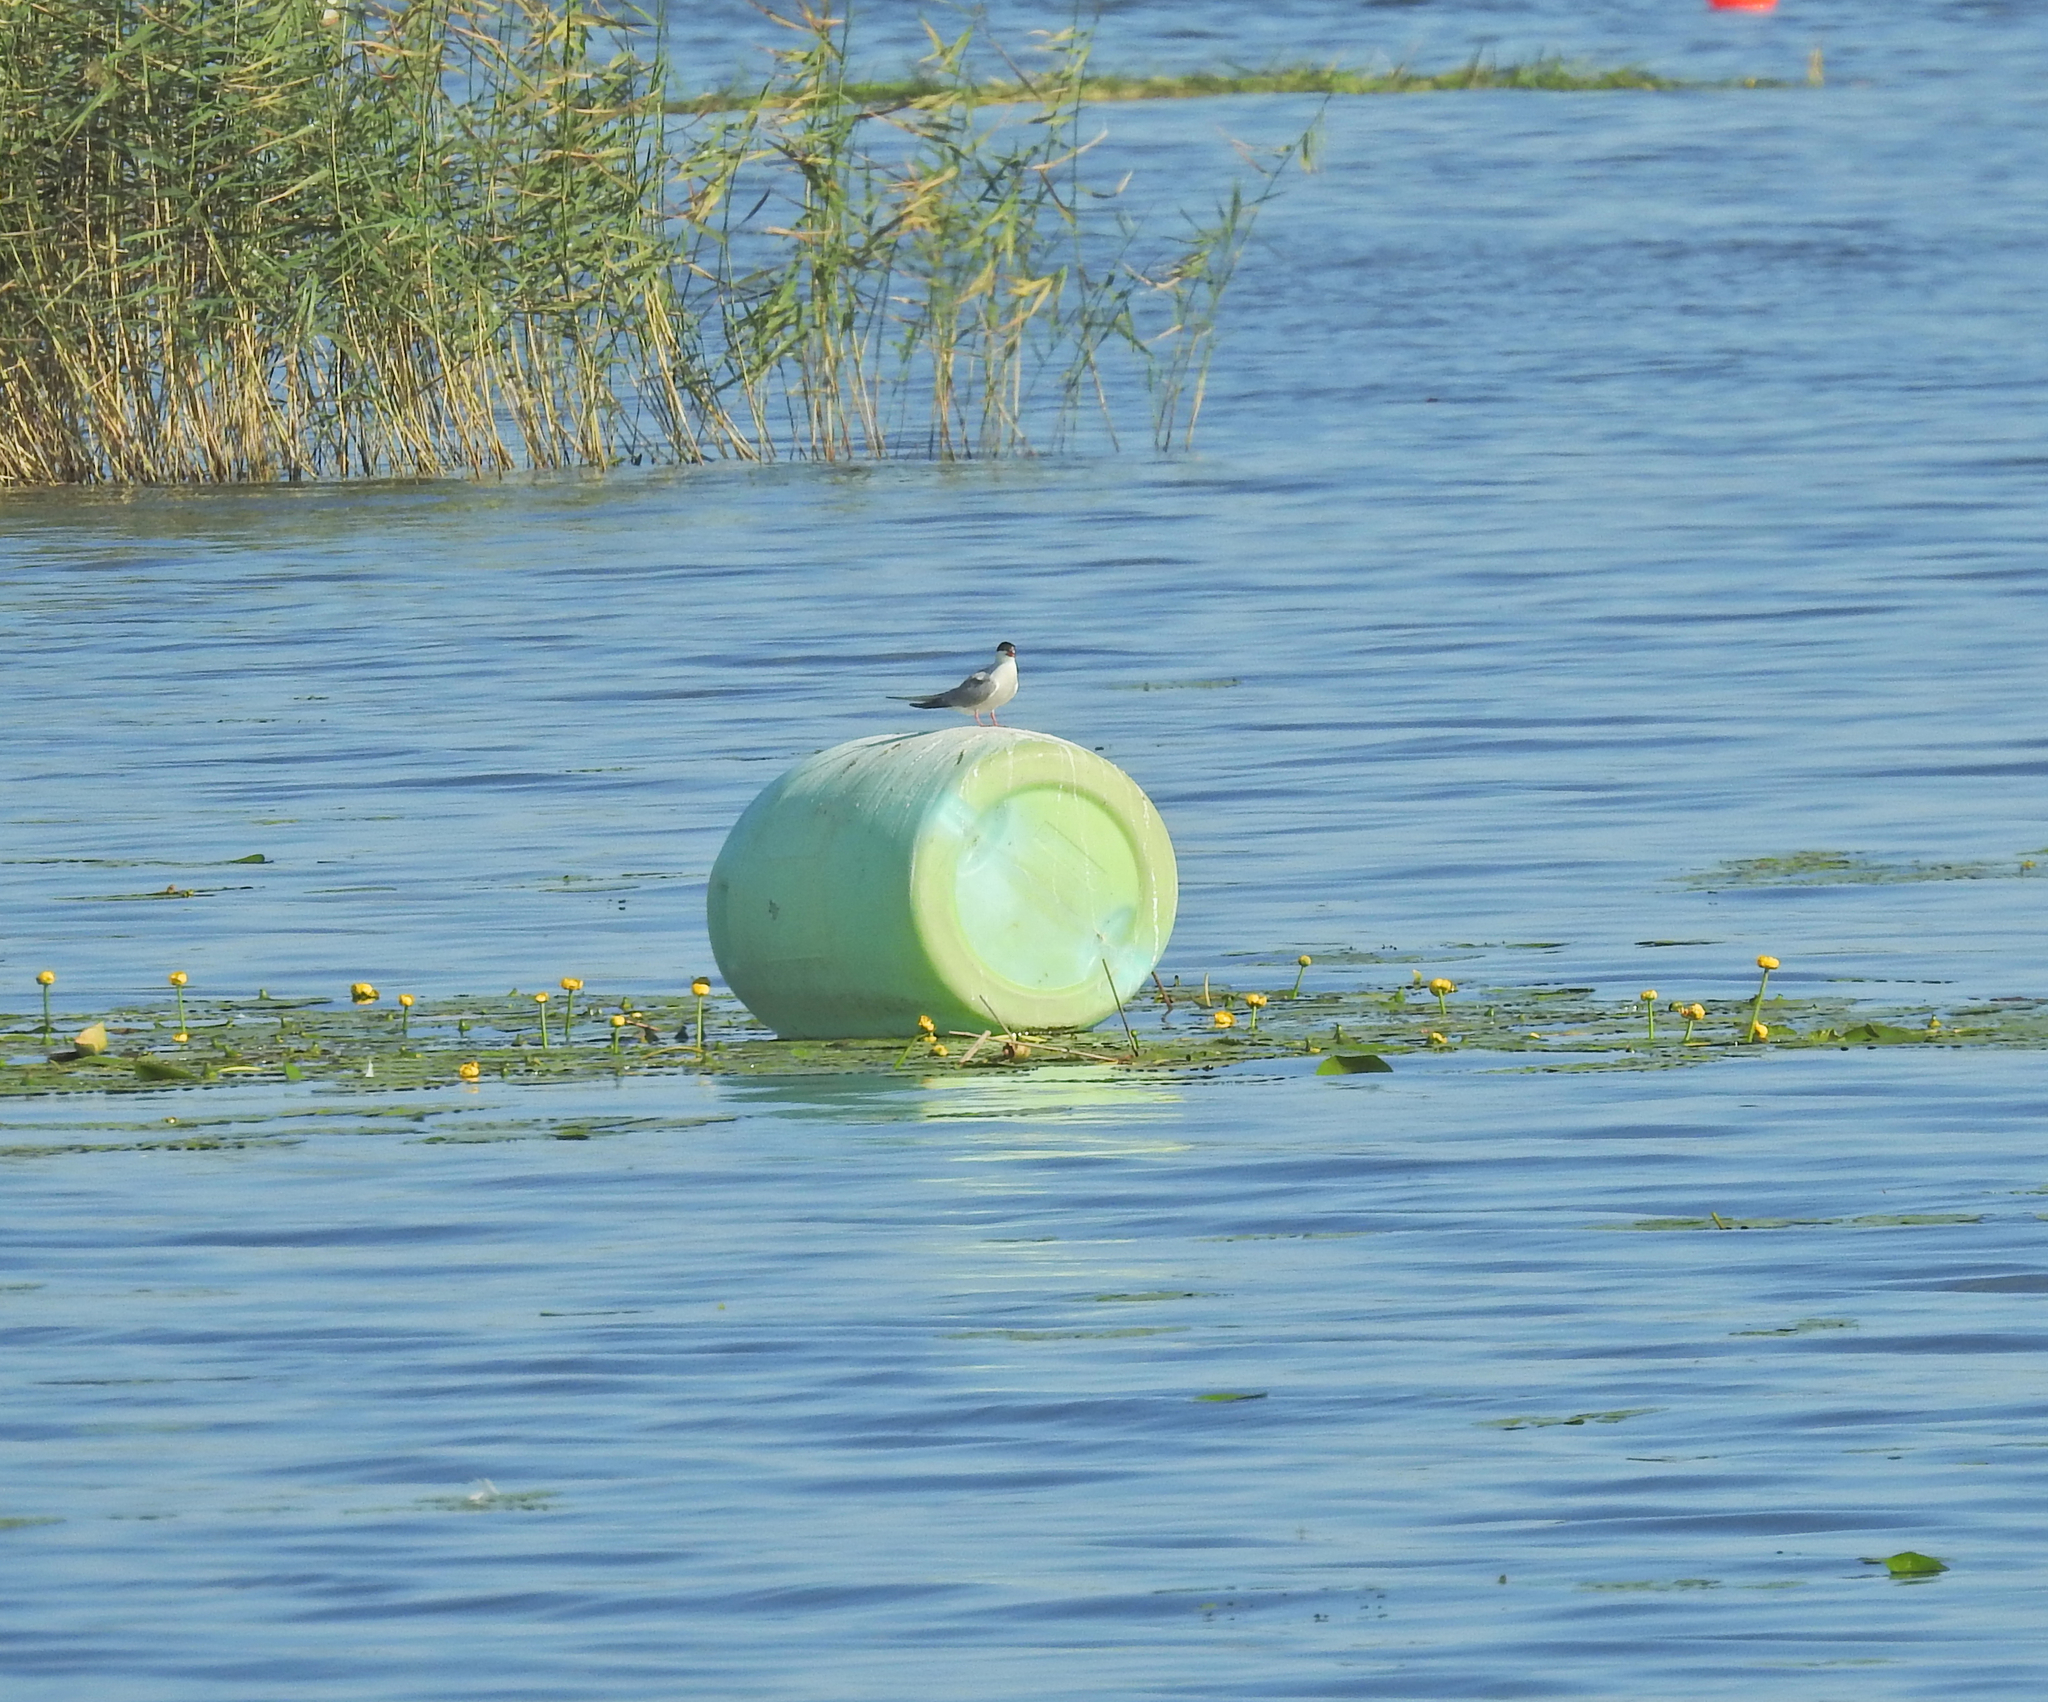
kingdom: Animalia
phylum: Chordata
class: Aves
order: Charadriiformes
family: Laridae
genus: Sterna
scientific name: Sterna hirundo
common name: Common tern
